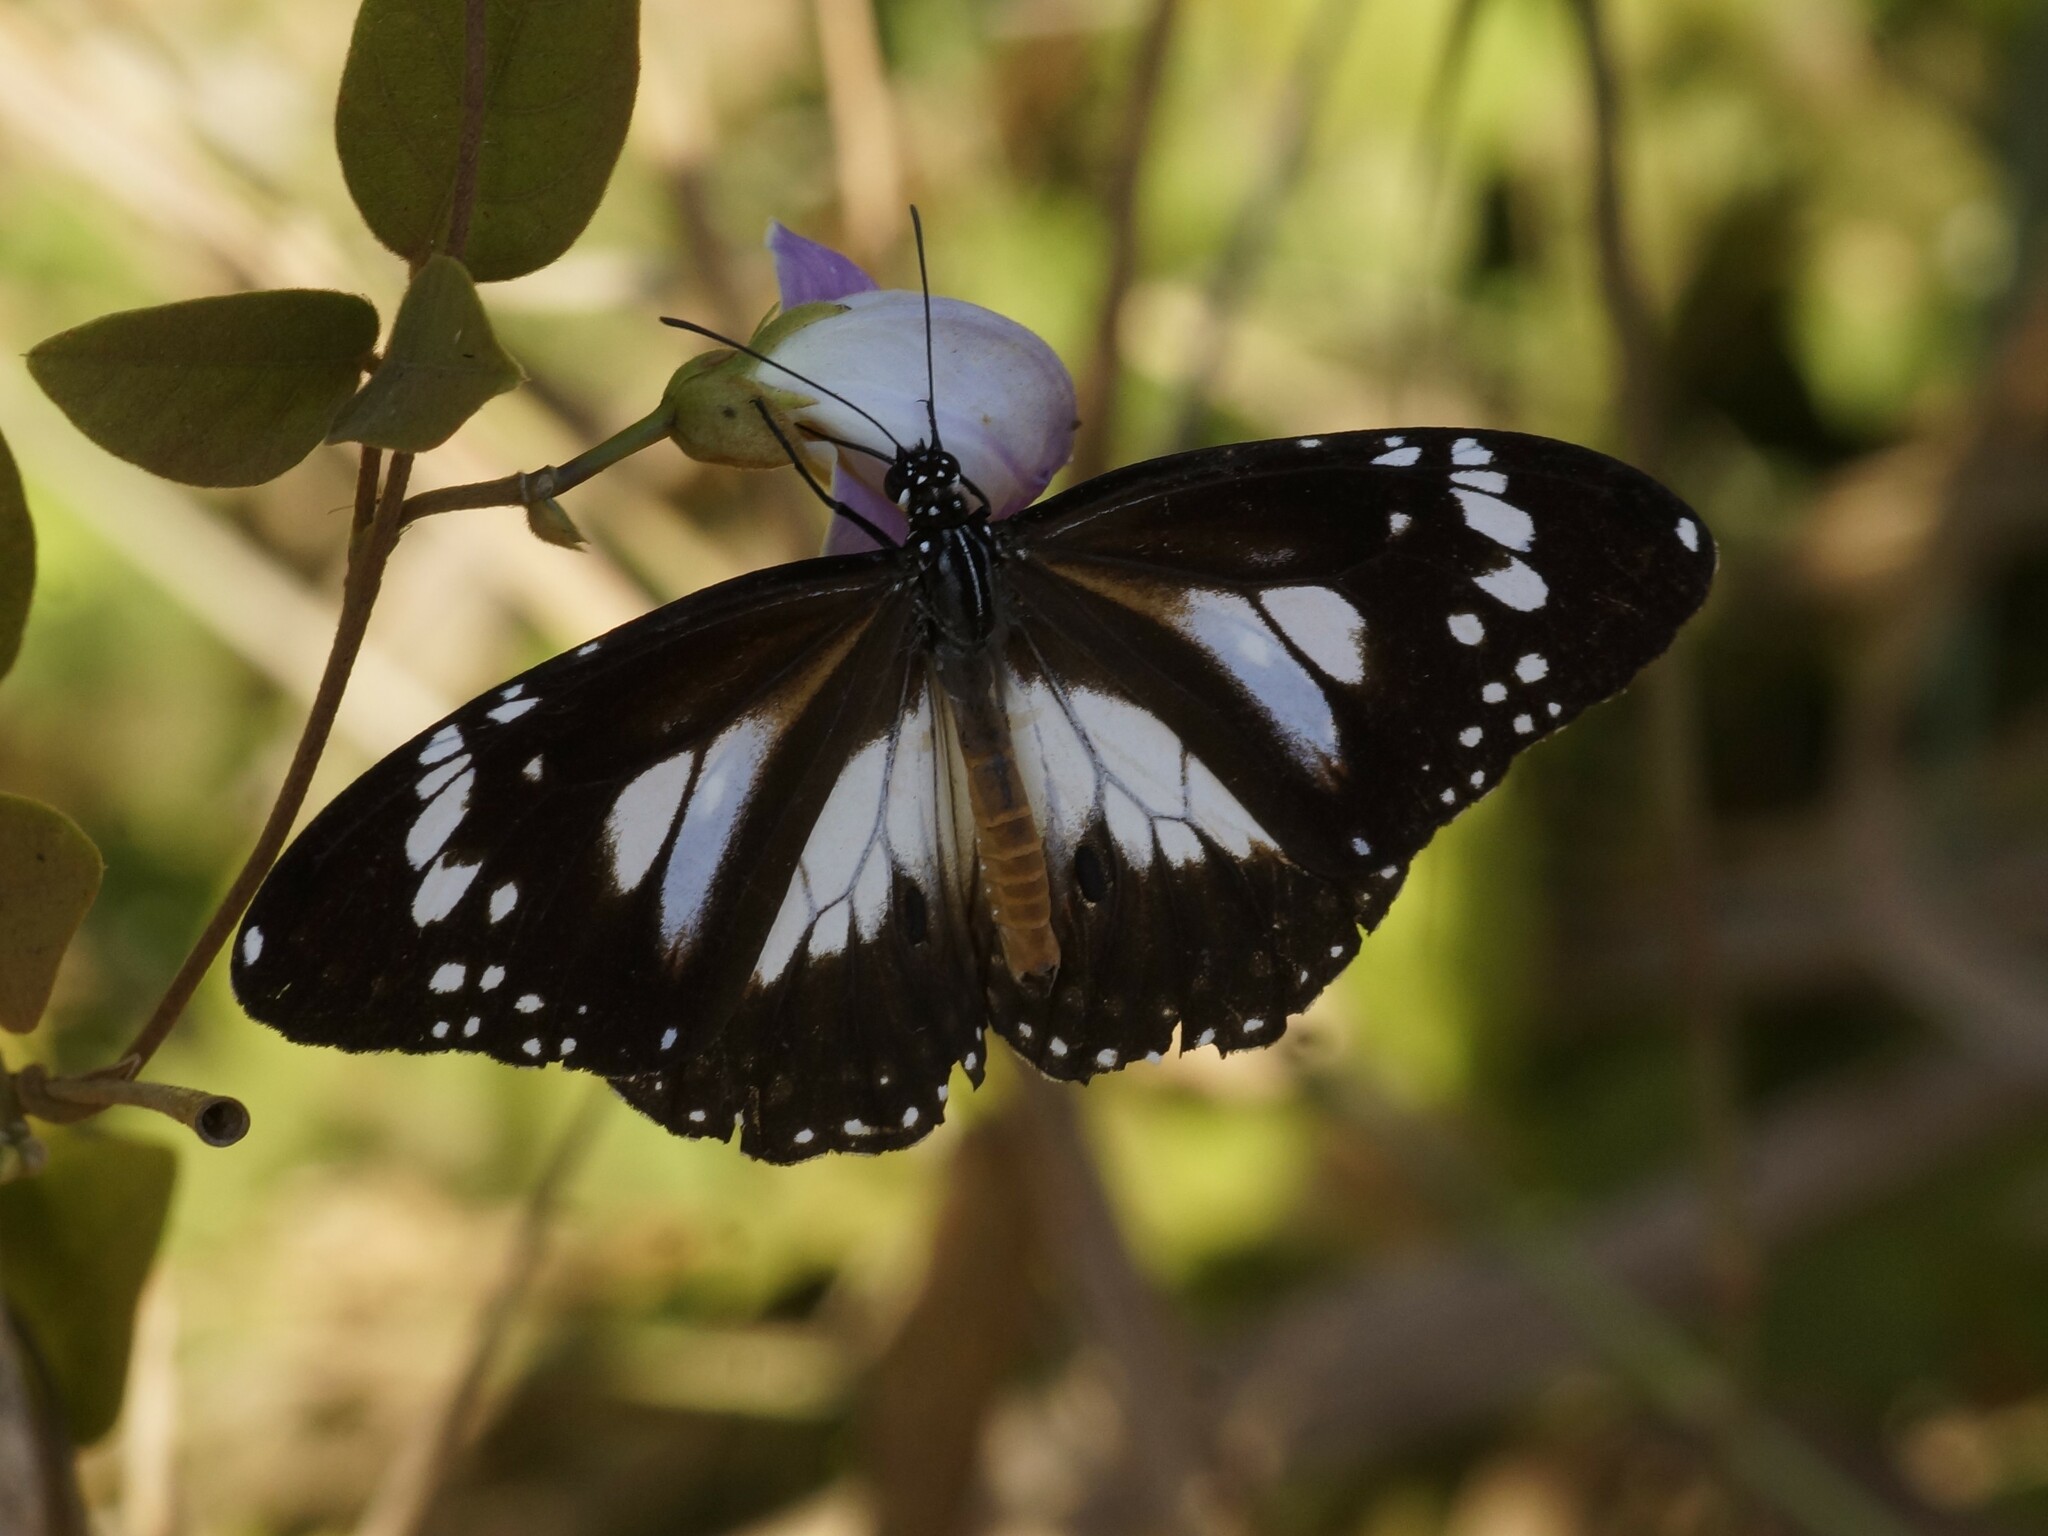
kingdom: Animalia
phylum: Arthropoda
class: Insecta
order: Lepidoptera
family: Nymphalidae
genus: Danaus
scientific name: Danaus affinis
